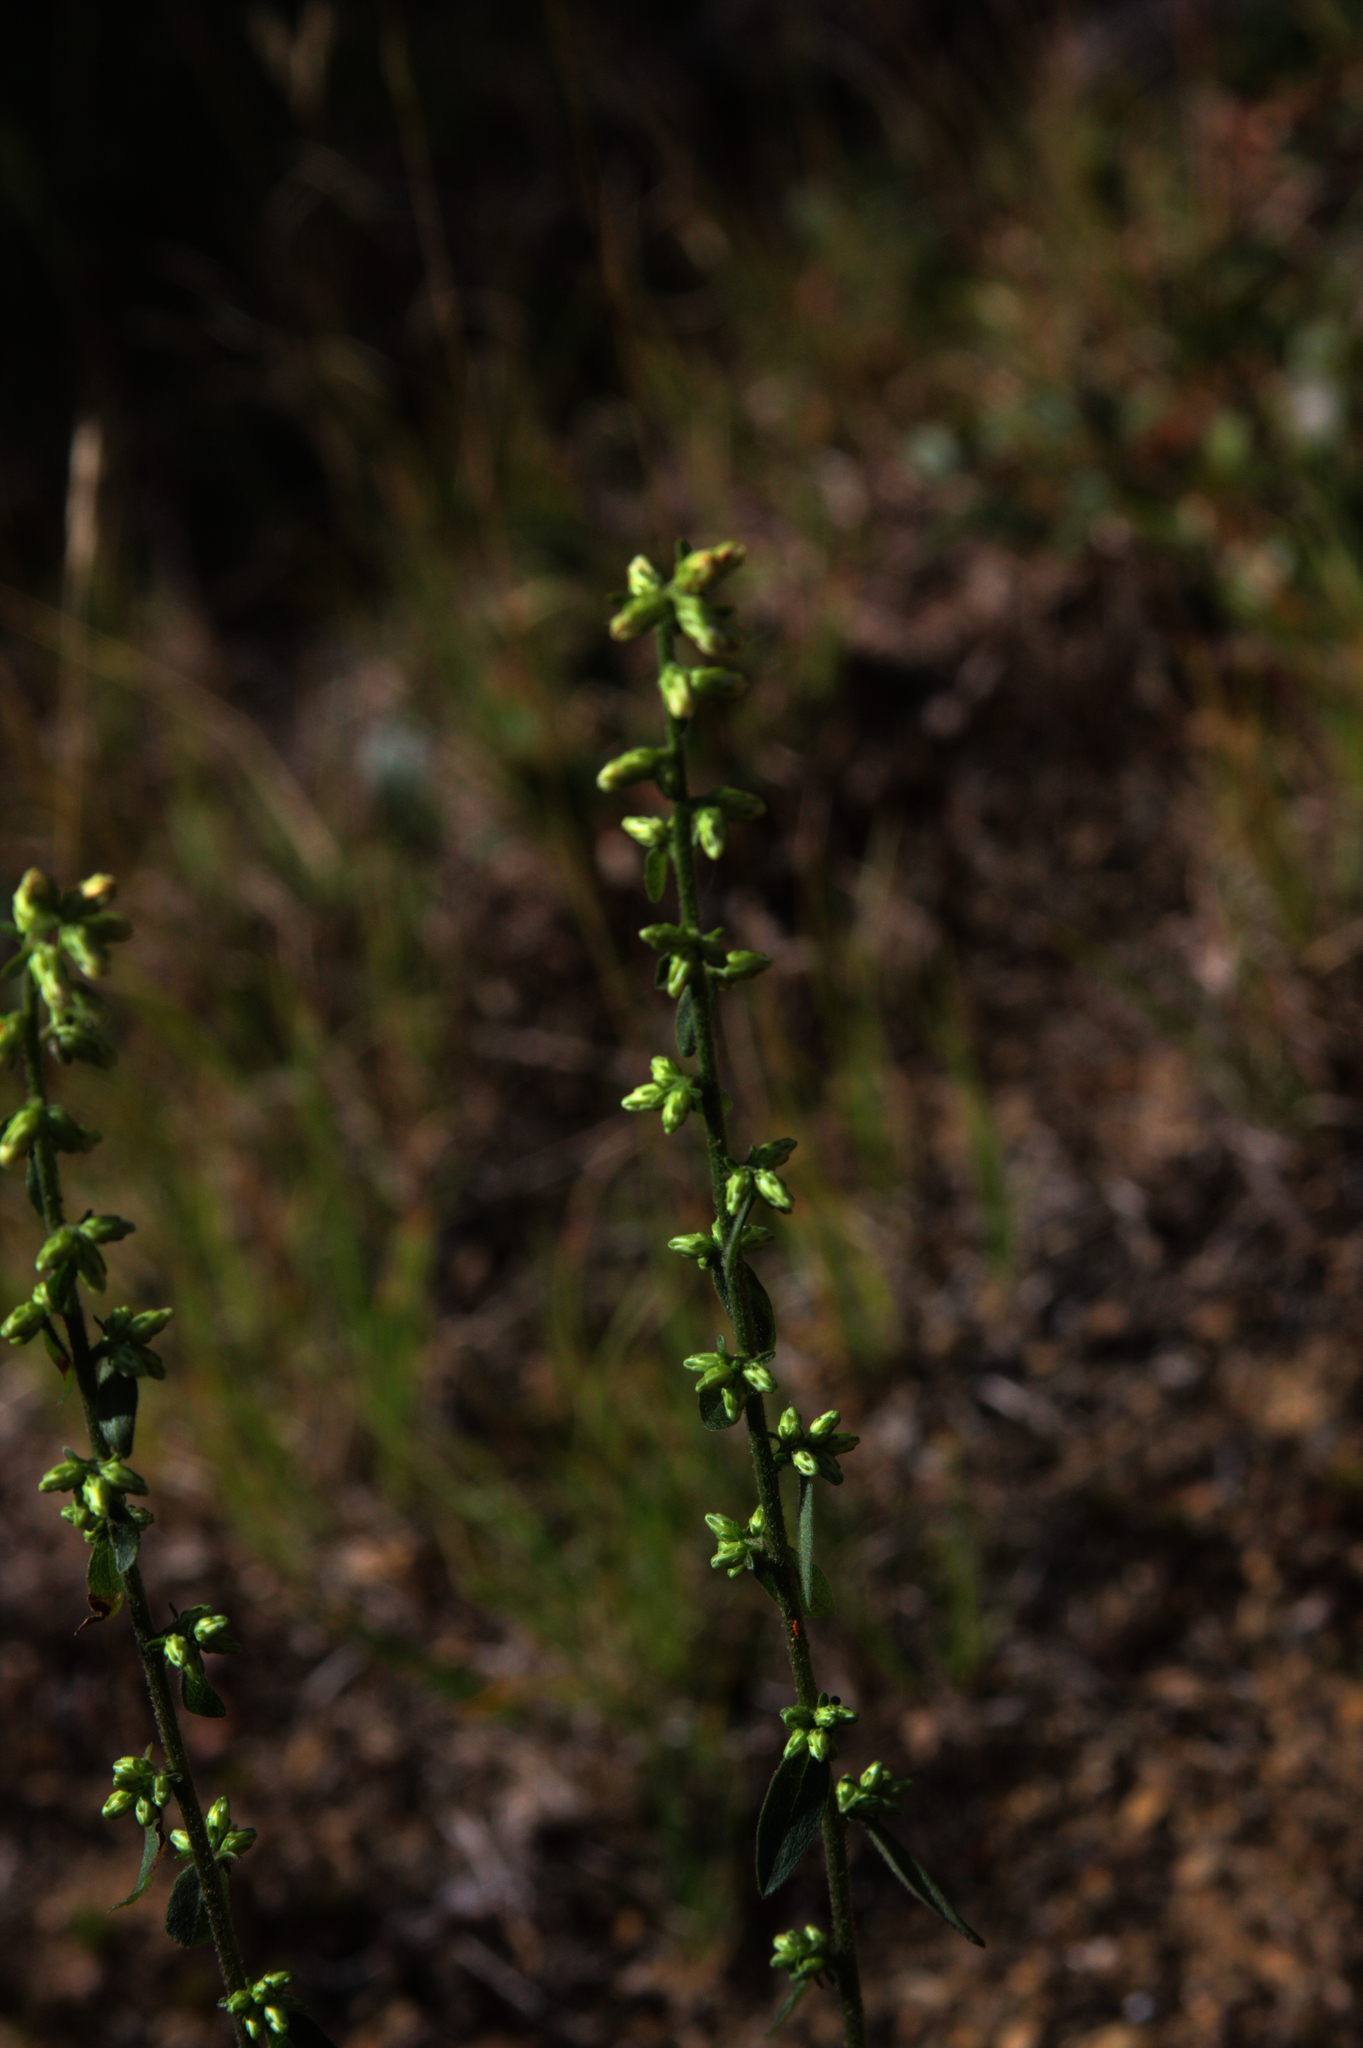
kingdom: Plantae
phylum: Tracheophyta
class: Magnoliopsida
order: Asterales
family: Asteraceae
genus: Solidago
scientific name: Solidago bicolor
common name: Silverrod
